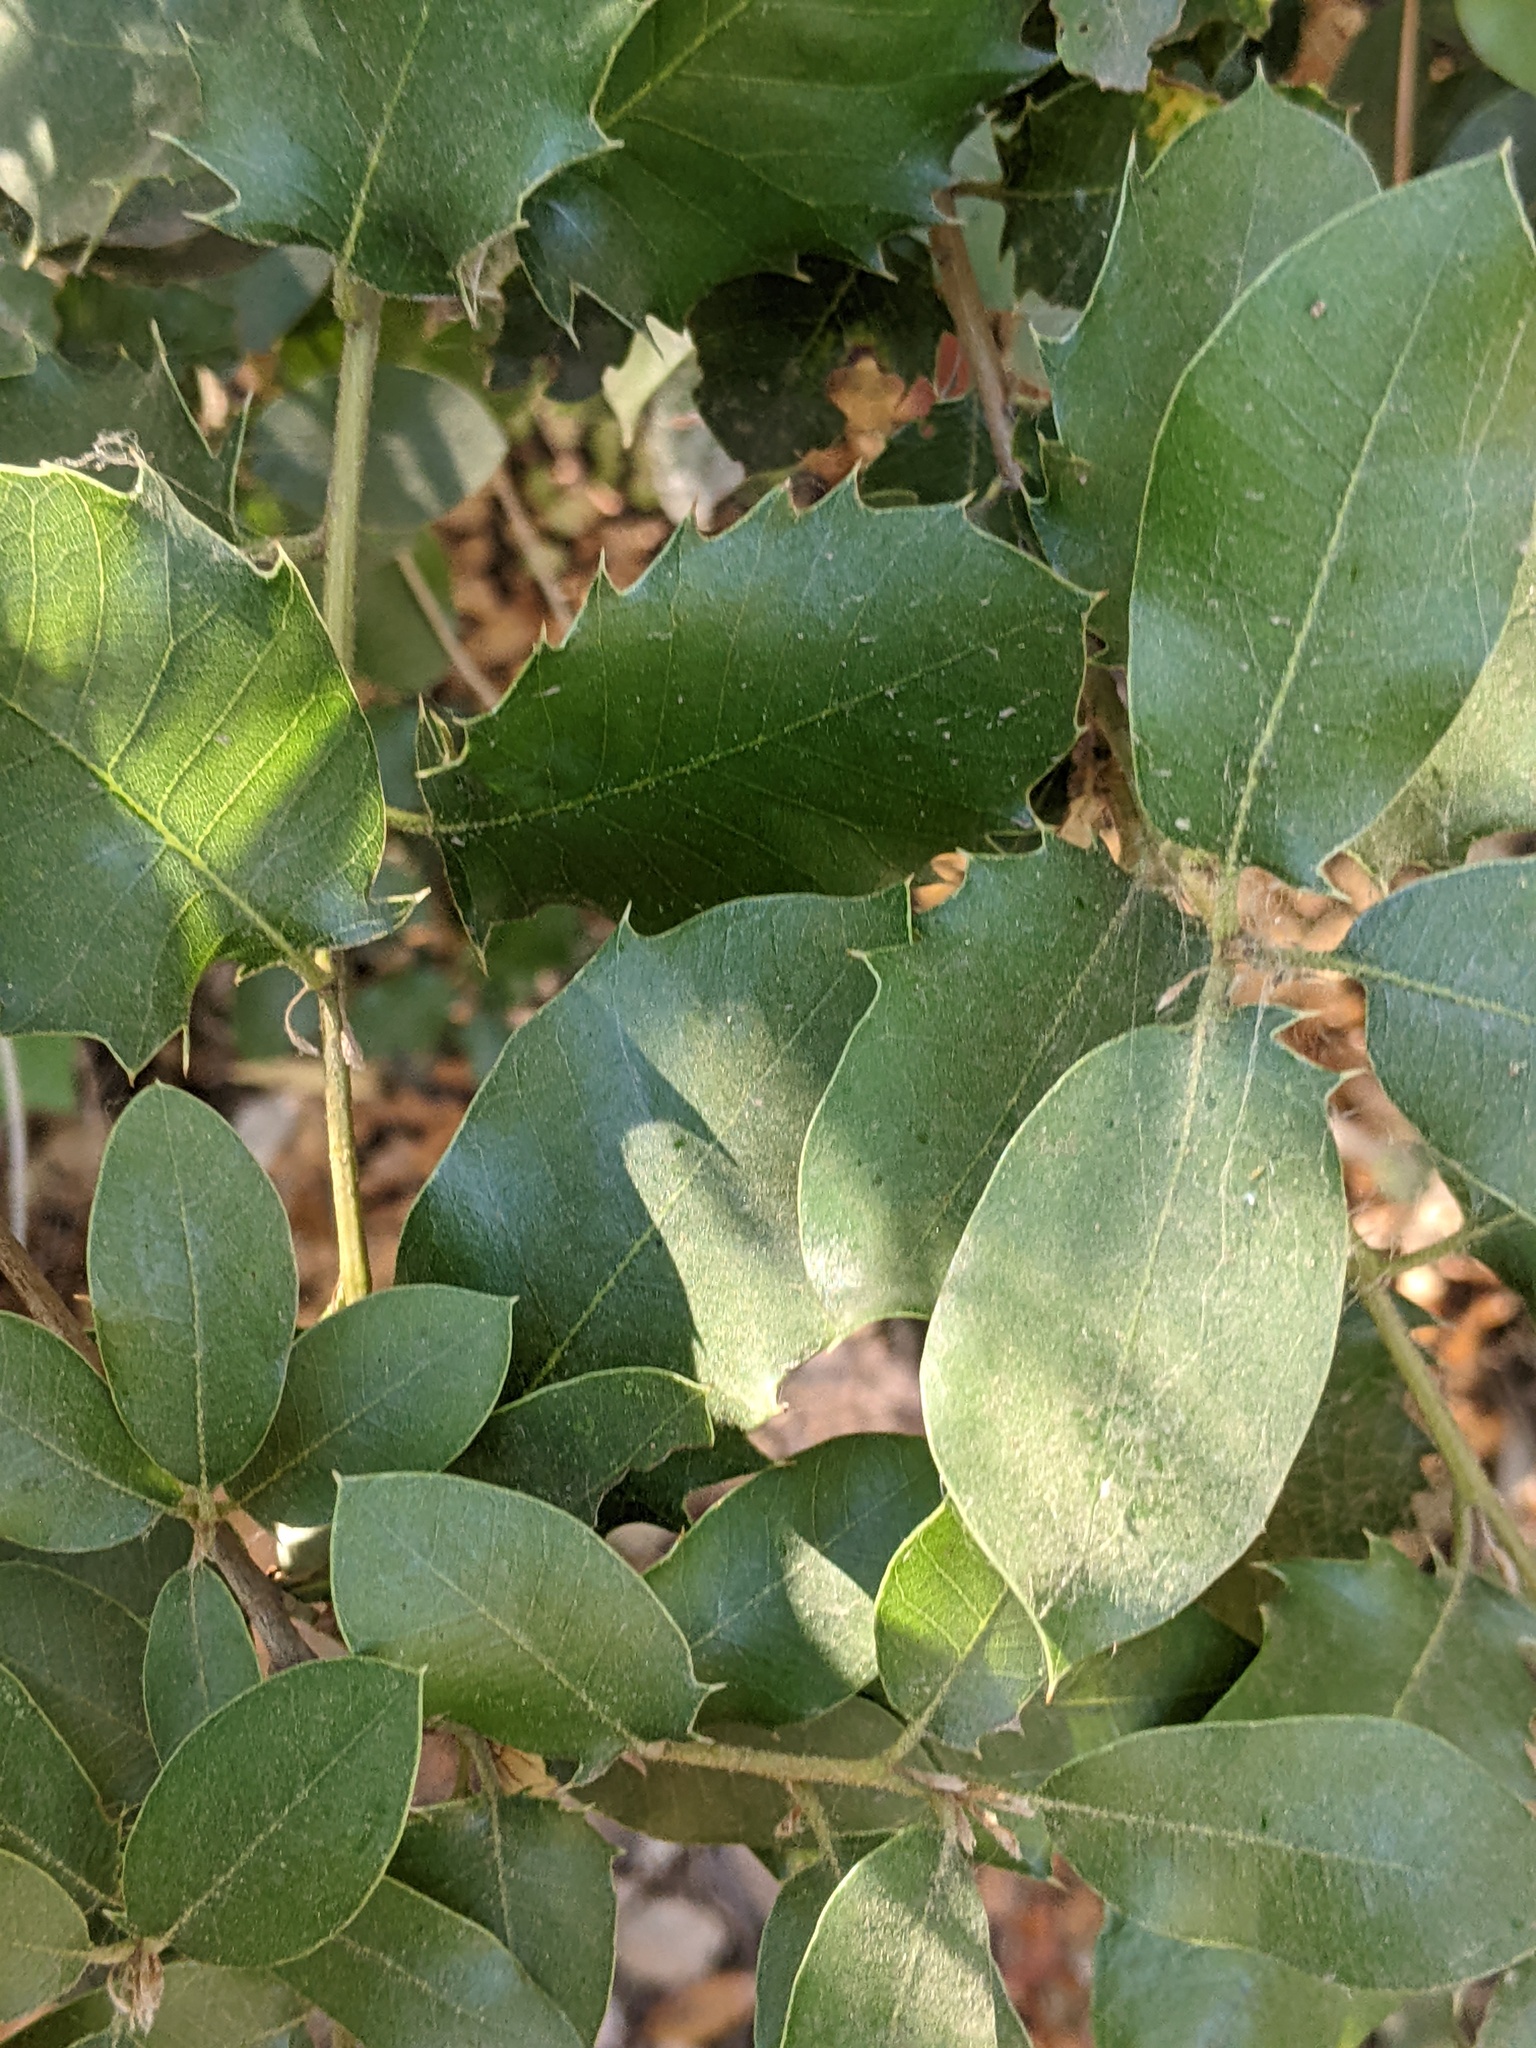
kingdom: Plantae
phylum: Tracheophyta
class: Magnoliopsida
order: Fagales
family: Fagaceae
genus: Quercus
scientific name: Quercus chrysolepis
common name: Canyon live oak
